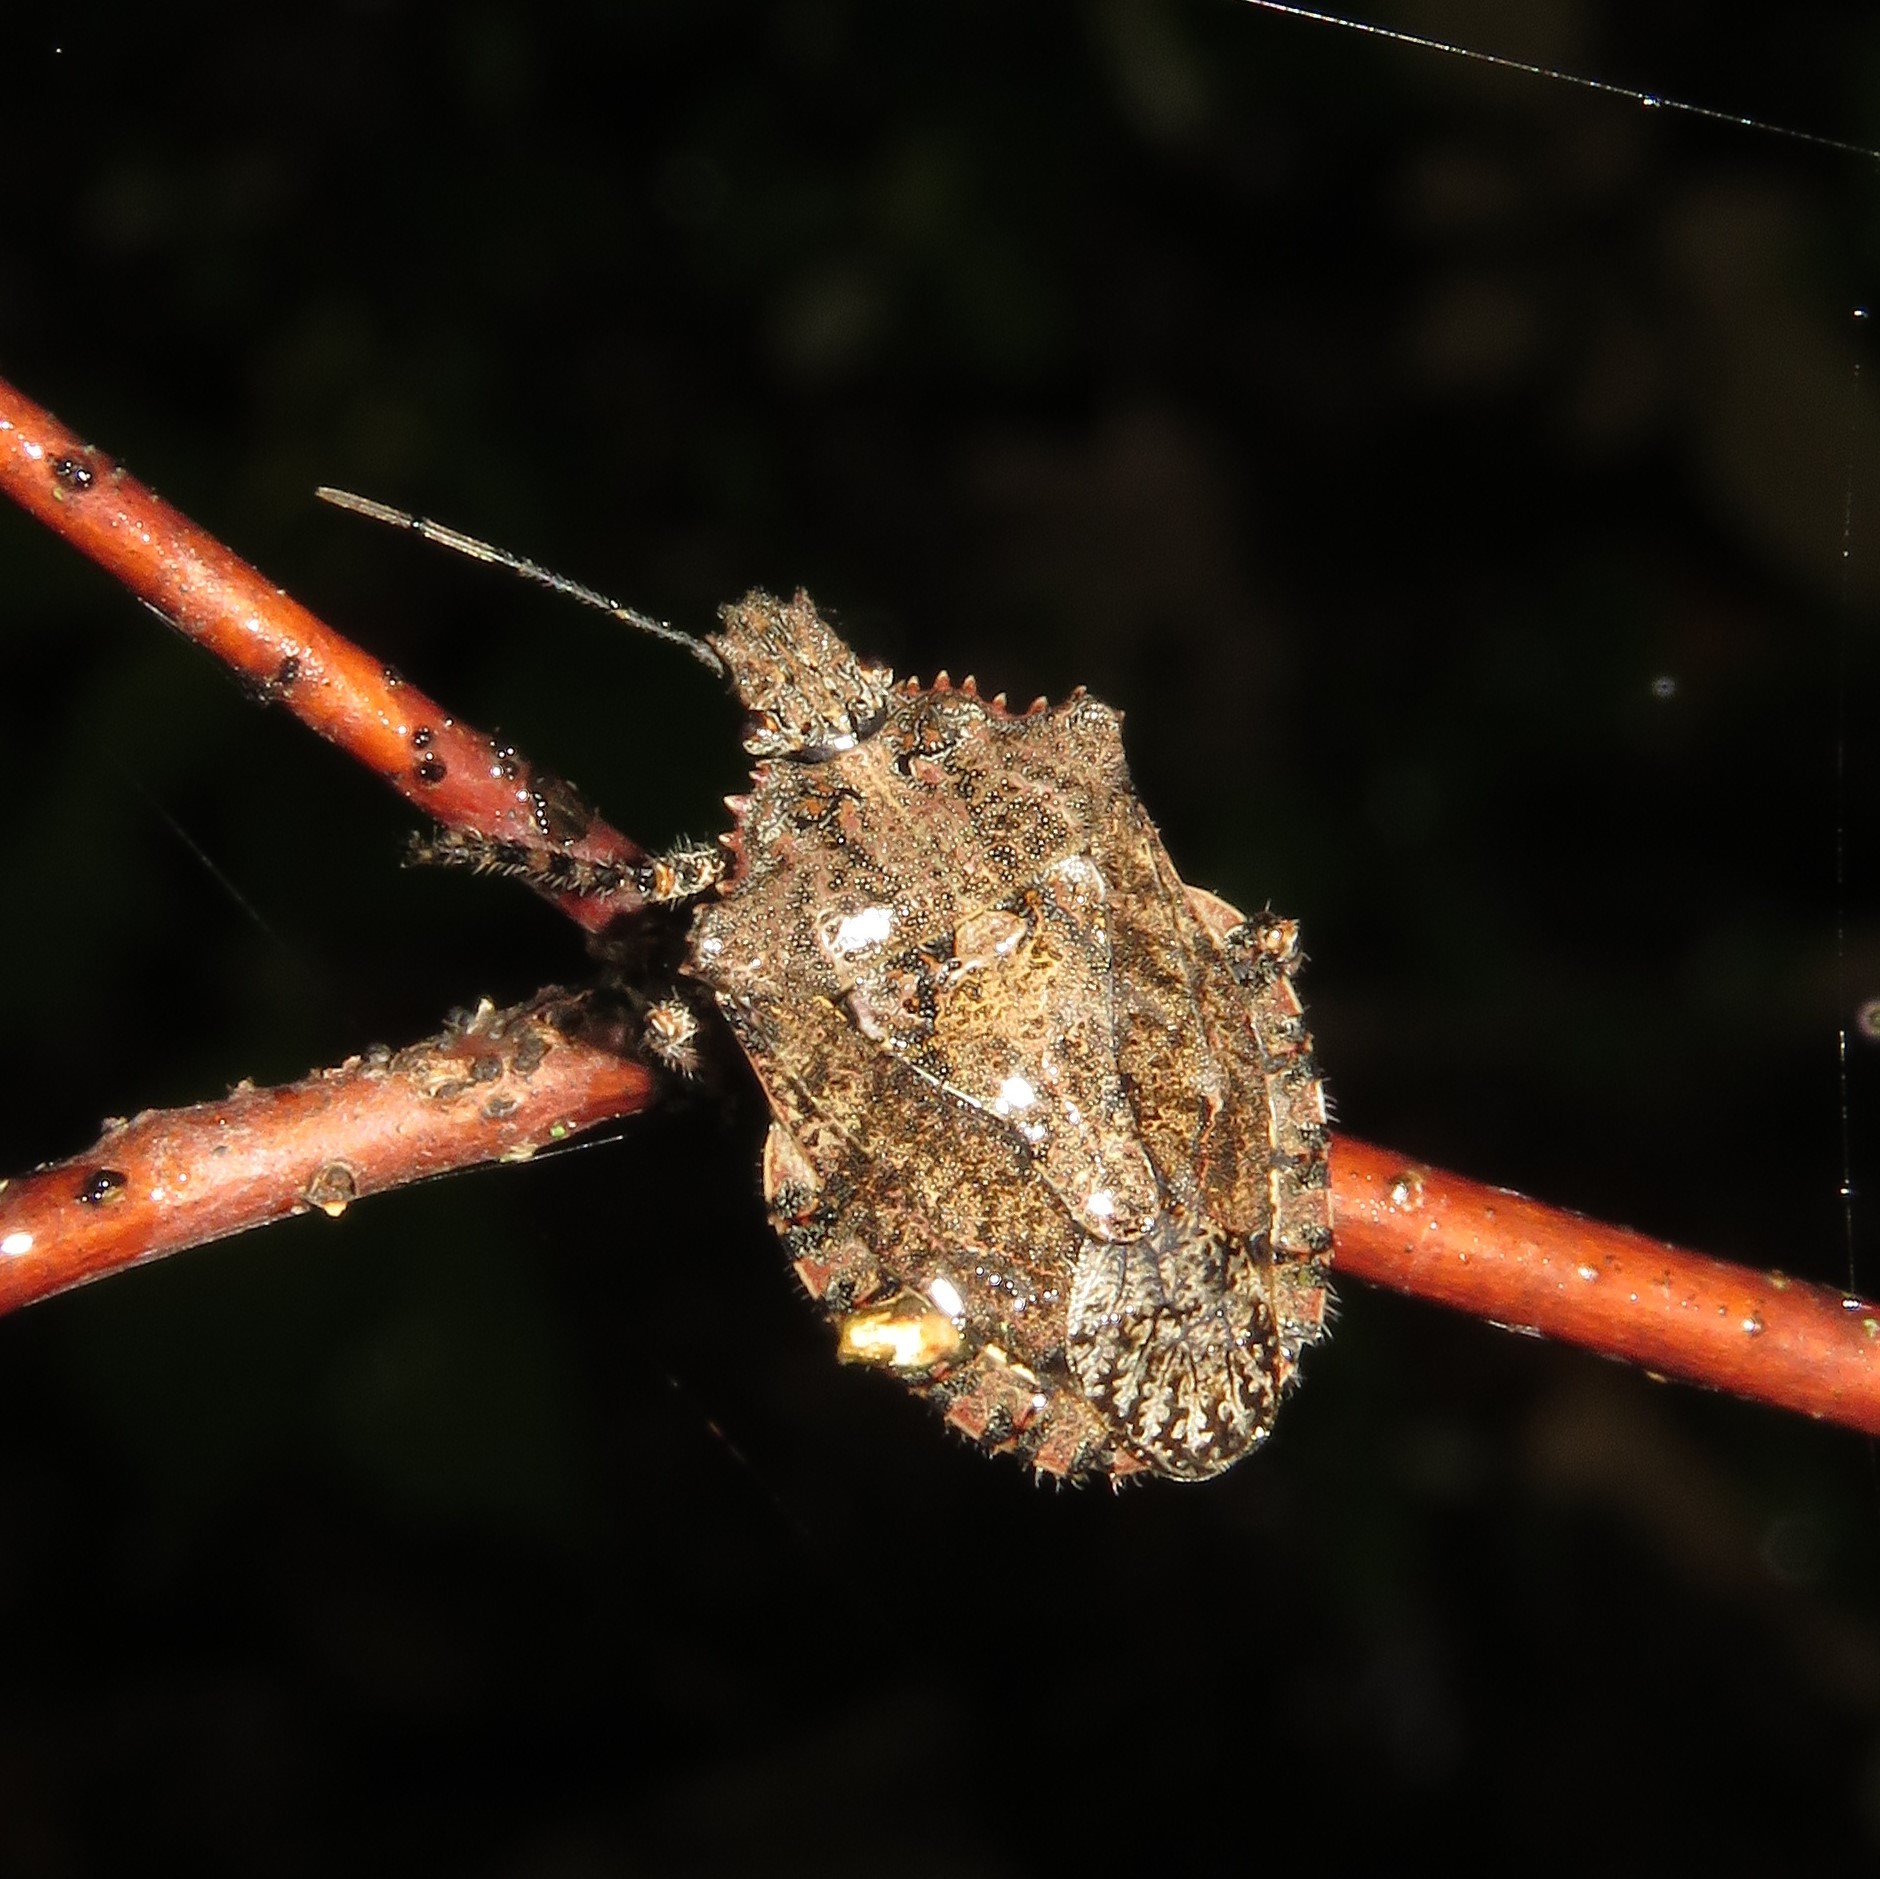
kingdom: Animalia
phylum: Arthropoda
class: Insecta
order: Hemiptera
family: Pentatomidae
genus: Brochymena
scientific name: Brochymena arborea
